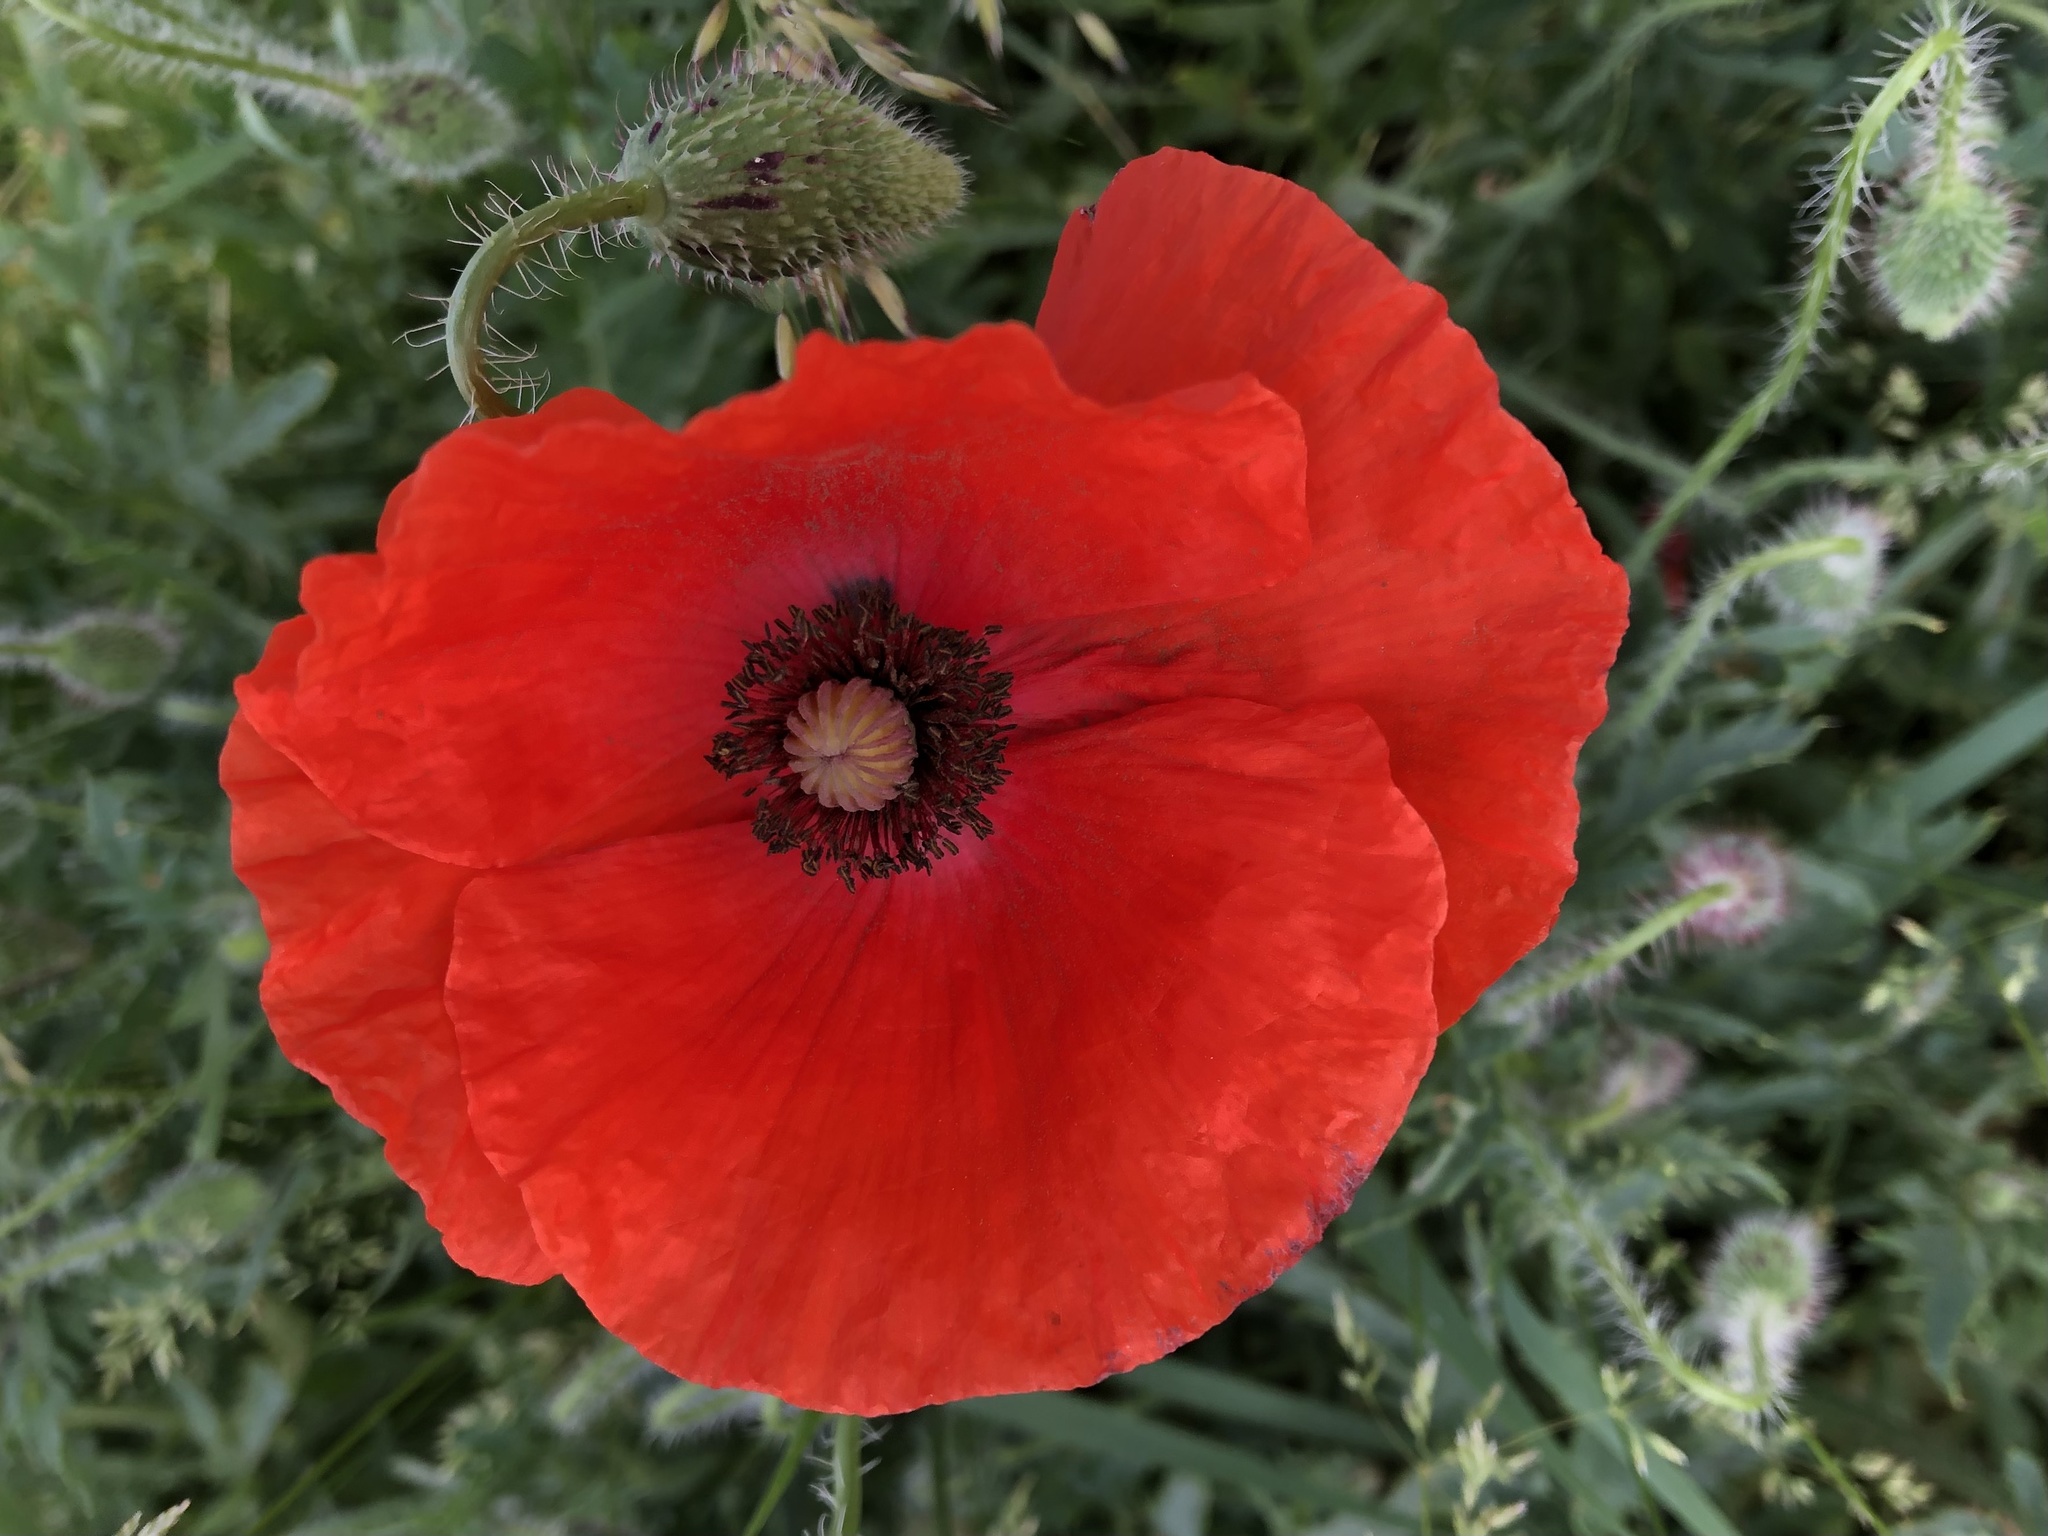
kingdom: Plantae
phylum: Tracheophyta
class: Magnoliopsida
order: Ranunculales
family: Papaveraceae
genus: Papaver
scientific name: Papaver rhoeas
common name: Corn poppy
